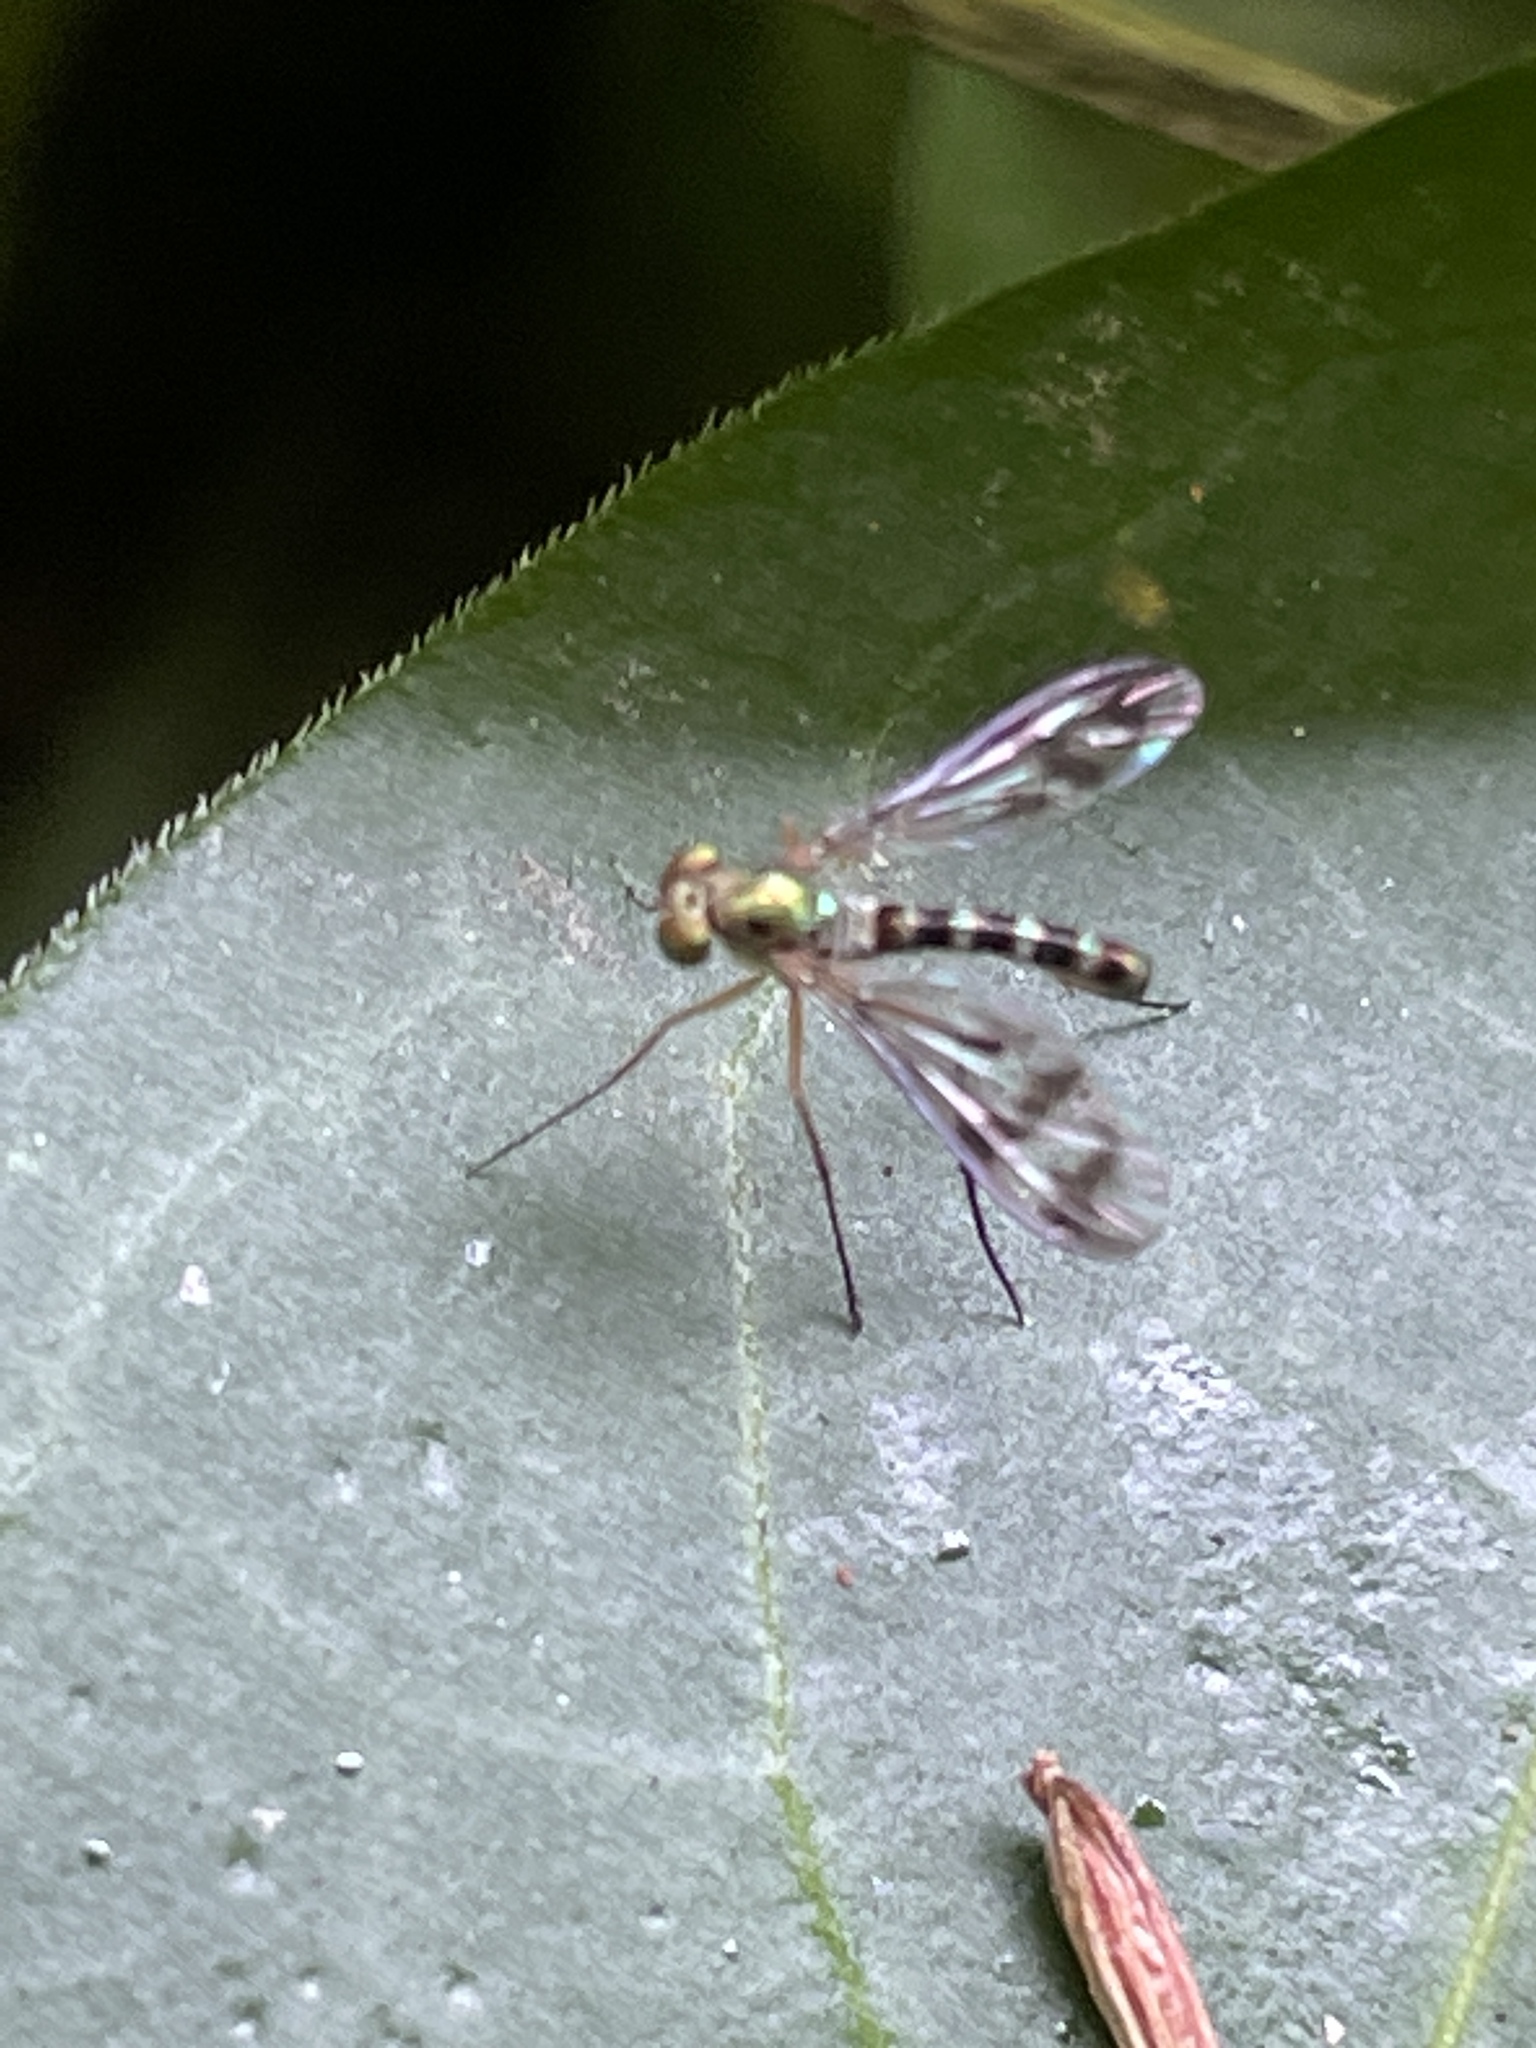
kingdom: Animalia
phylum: Arthropoda
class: Insecta
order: Diptera
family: Dolichopodidae
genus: Heteropsilopus
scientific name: Heteropsilopus ingenuum
